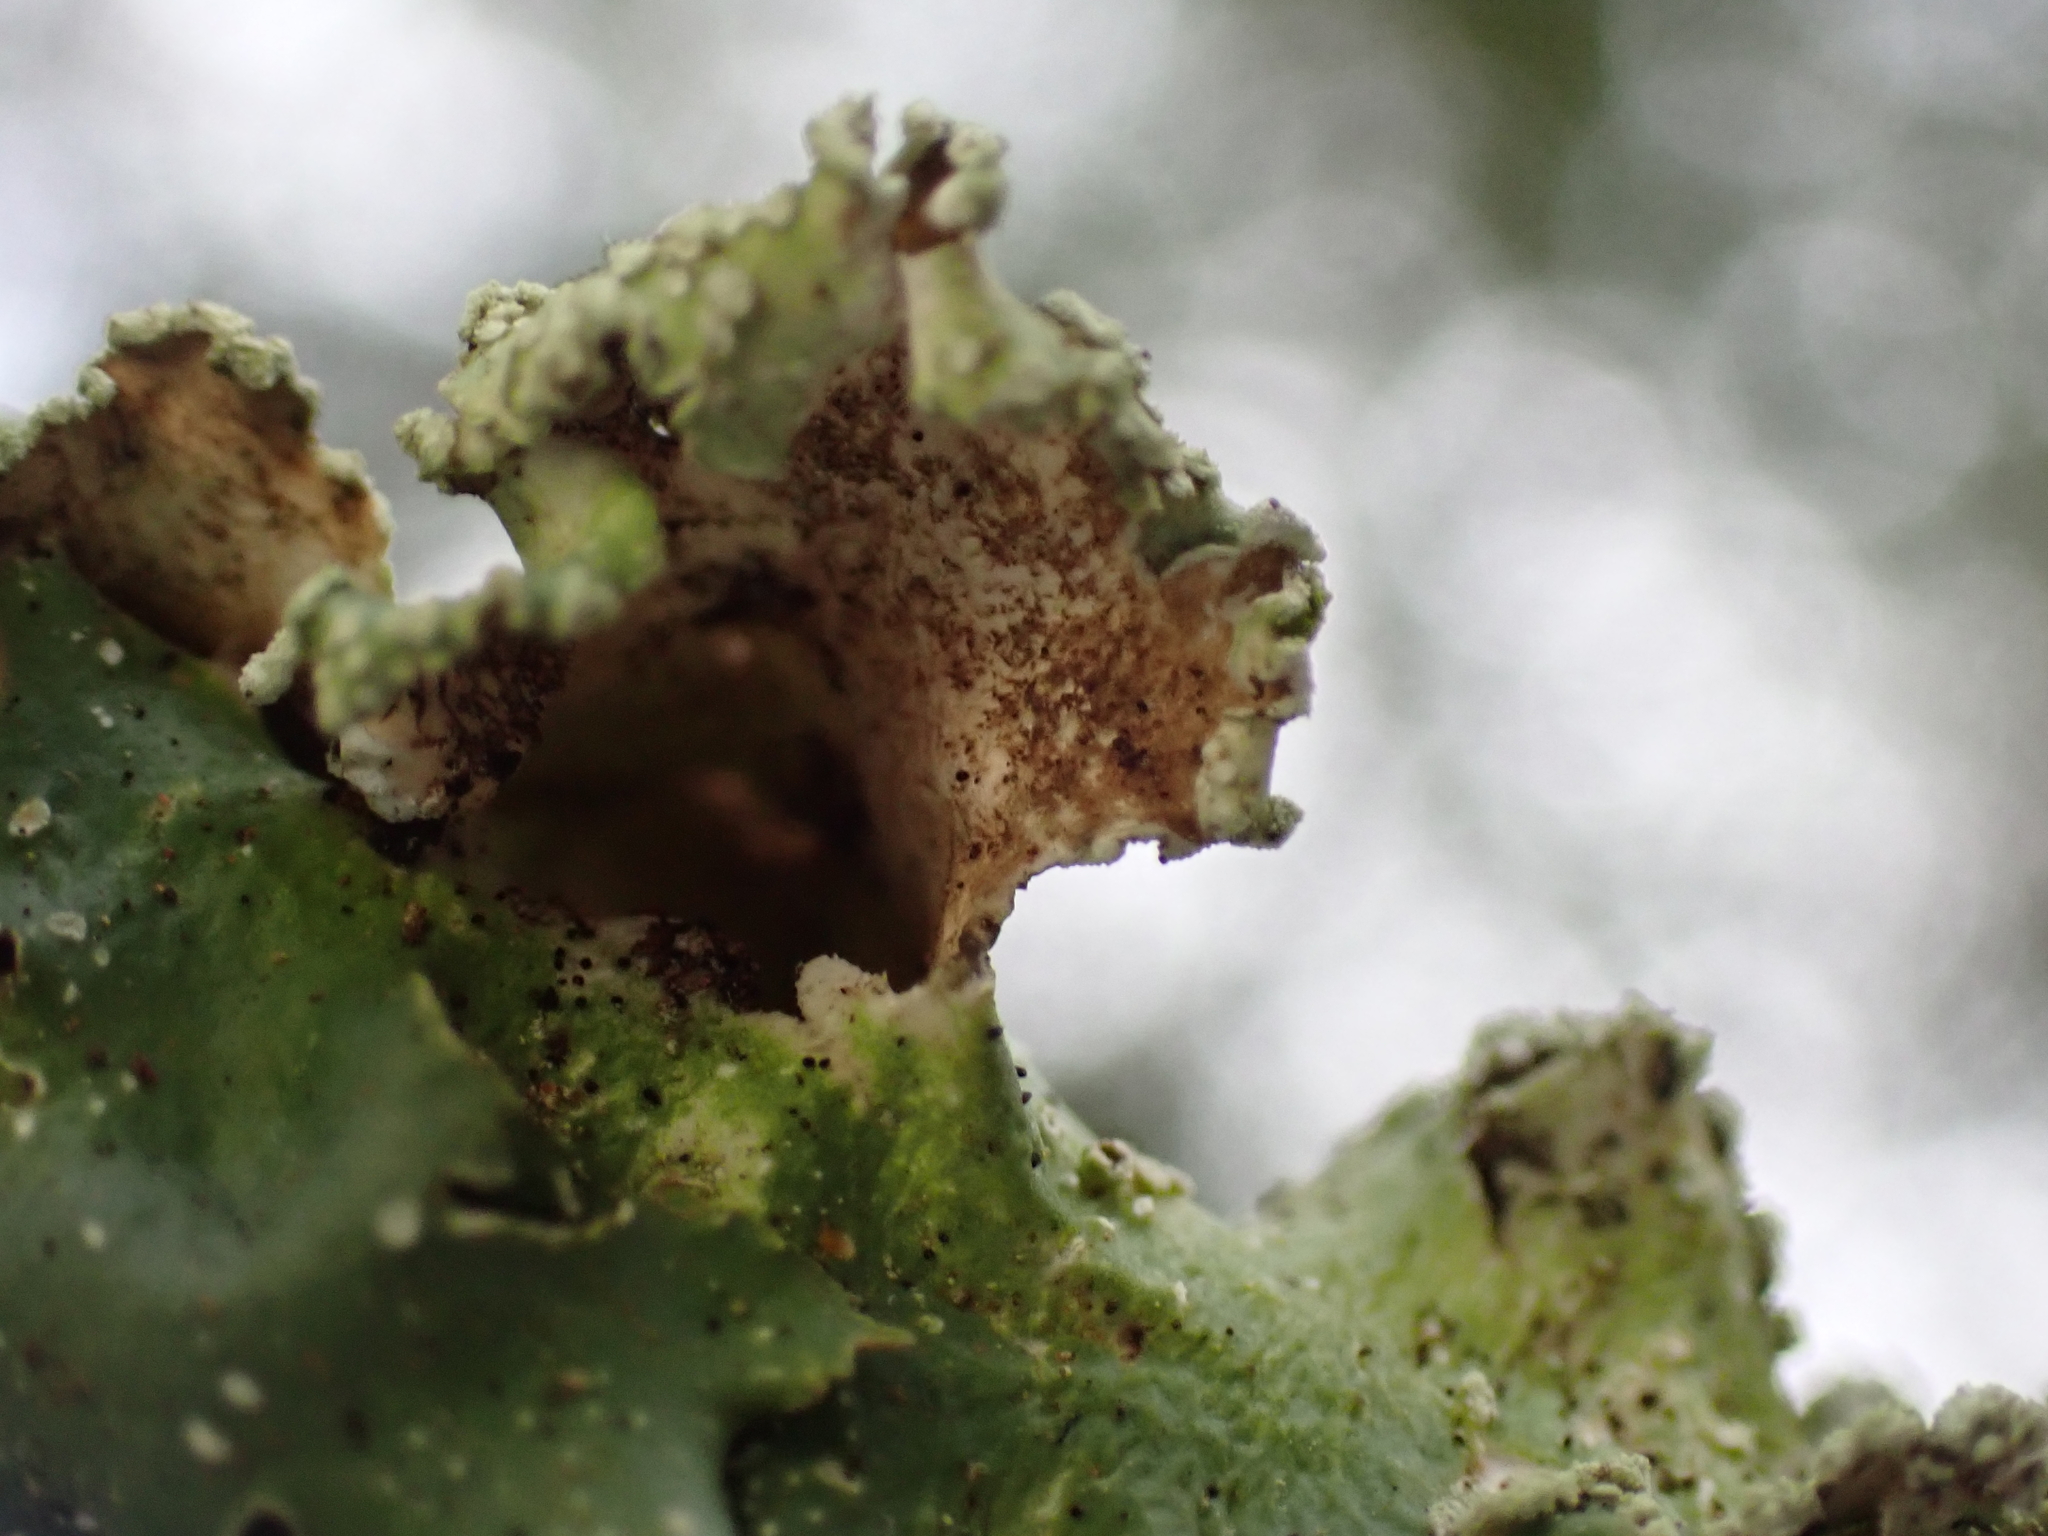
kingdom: Fungi
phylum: Ascomycota
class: Lecanoromycetes
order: Lecanorales
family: Parmeliaceae
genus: Flavopunctelia
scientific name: Flavopunctelia flaventior
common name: Speckled greenshield
